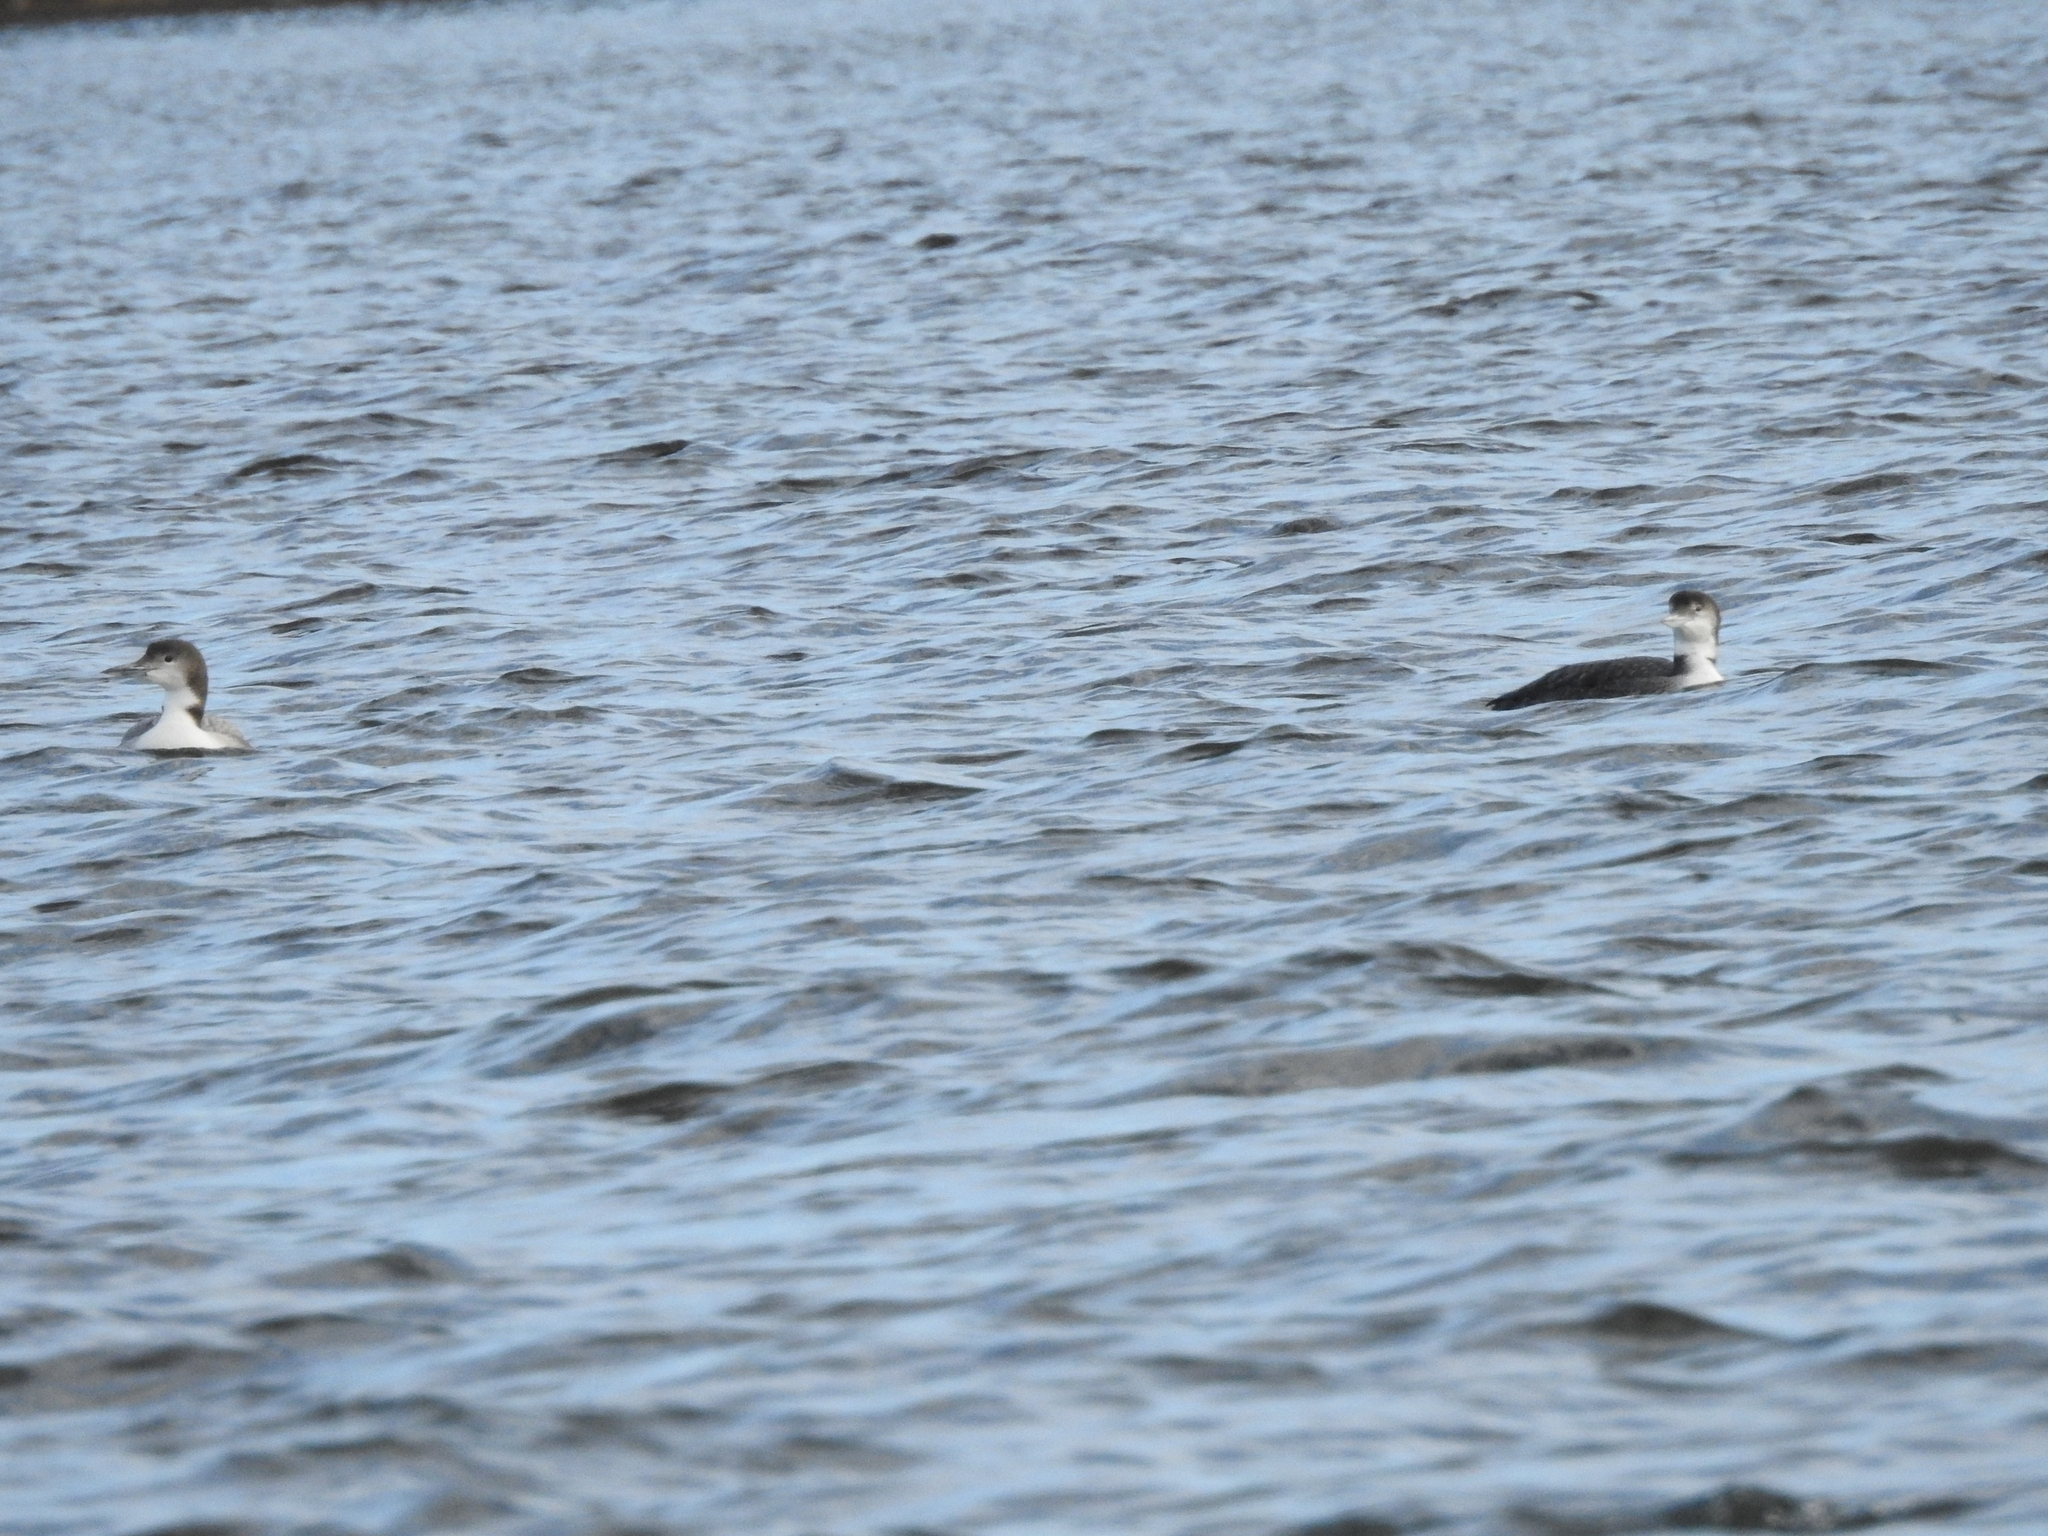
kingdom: Animalia
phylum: Chordata
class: Aves
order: Gaviiformes
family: Gaviidae
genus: Gavia
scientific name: Gavia immer
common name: Common loon
